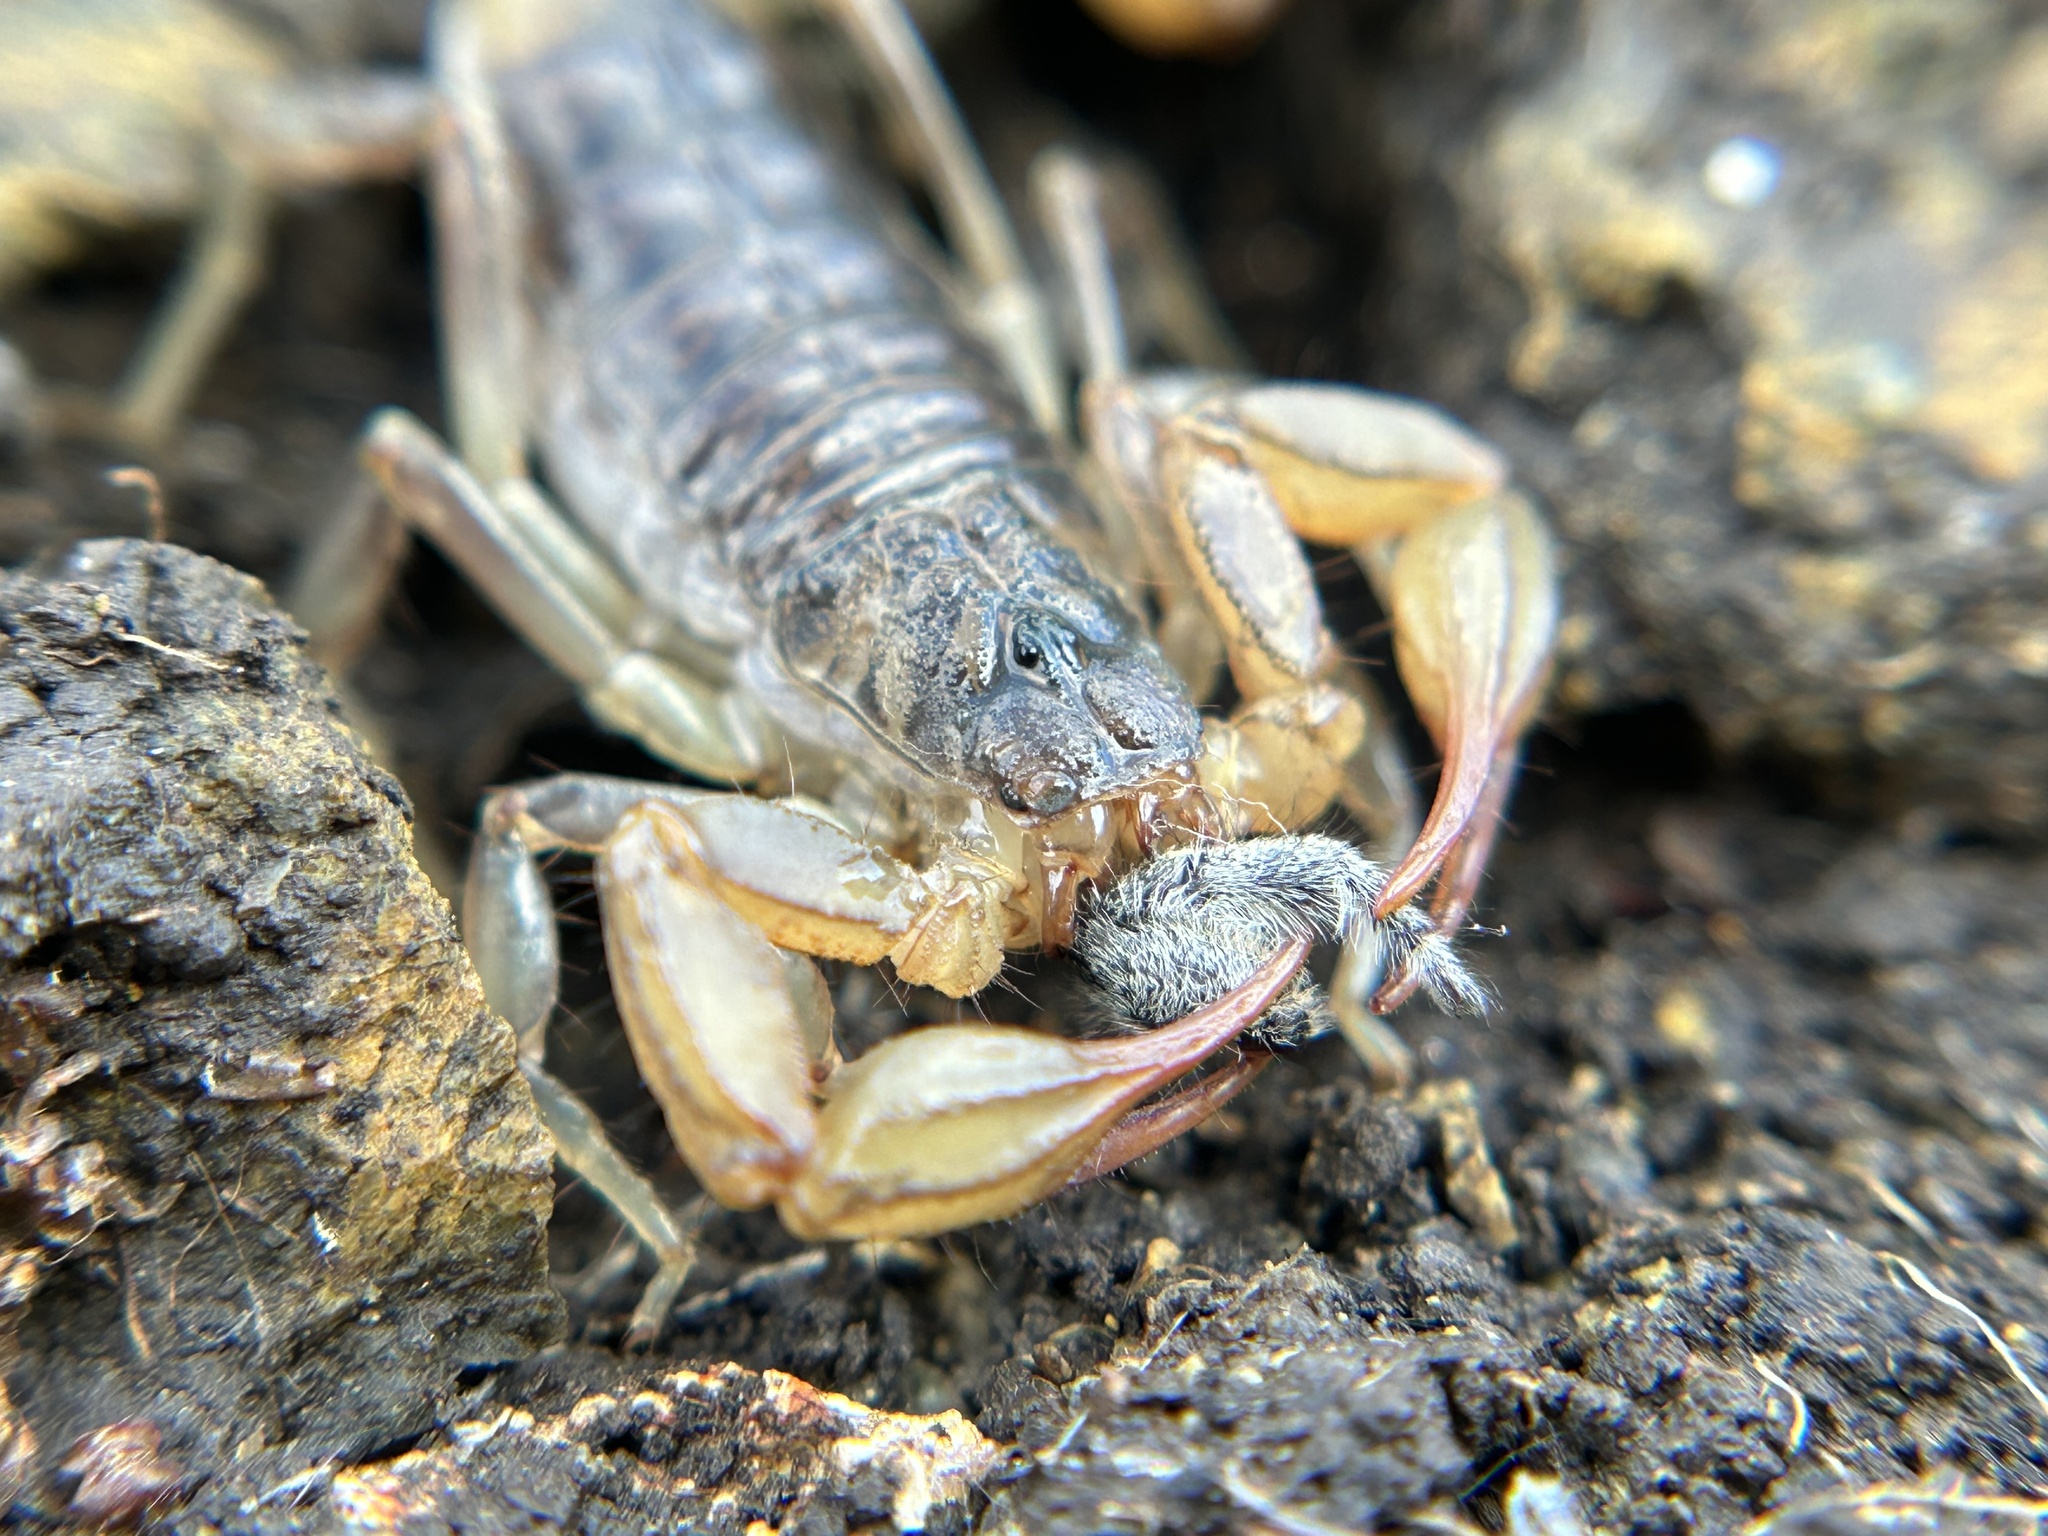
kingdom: Animalia
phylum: Arthropoda
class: Arachnida
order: Scorpiones
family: Vaejovidae
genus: Paruroctonus
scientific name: Paruroctonus silvestrii
